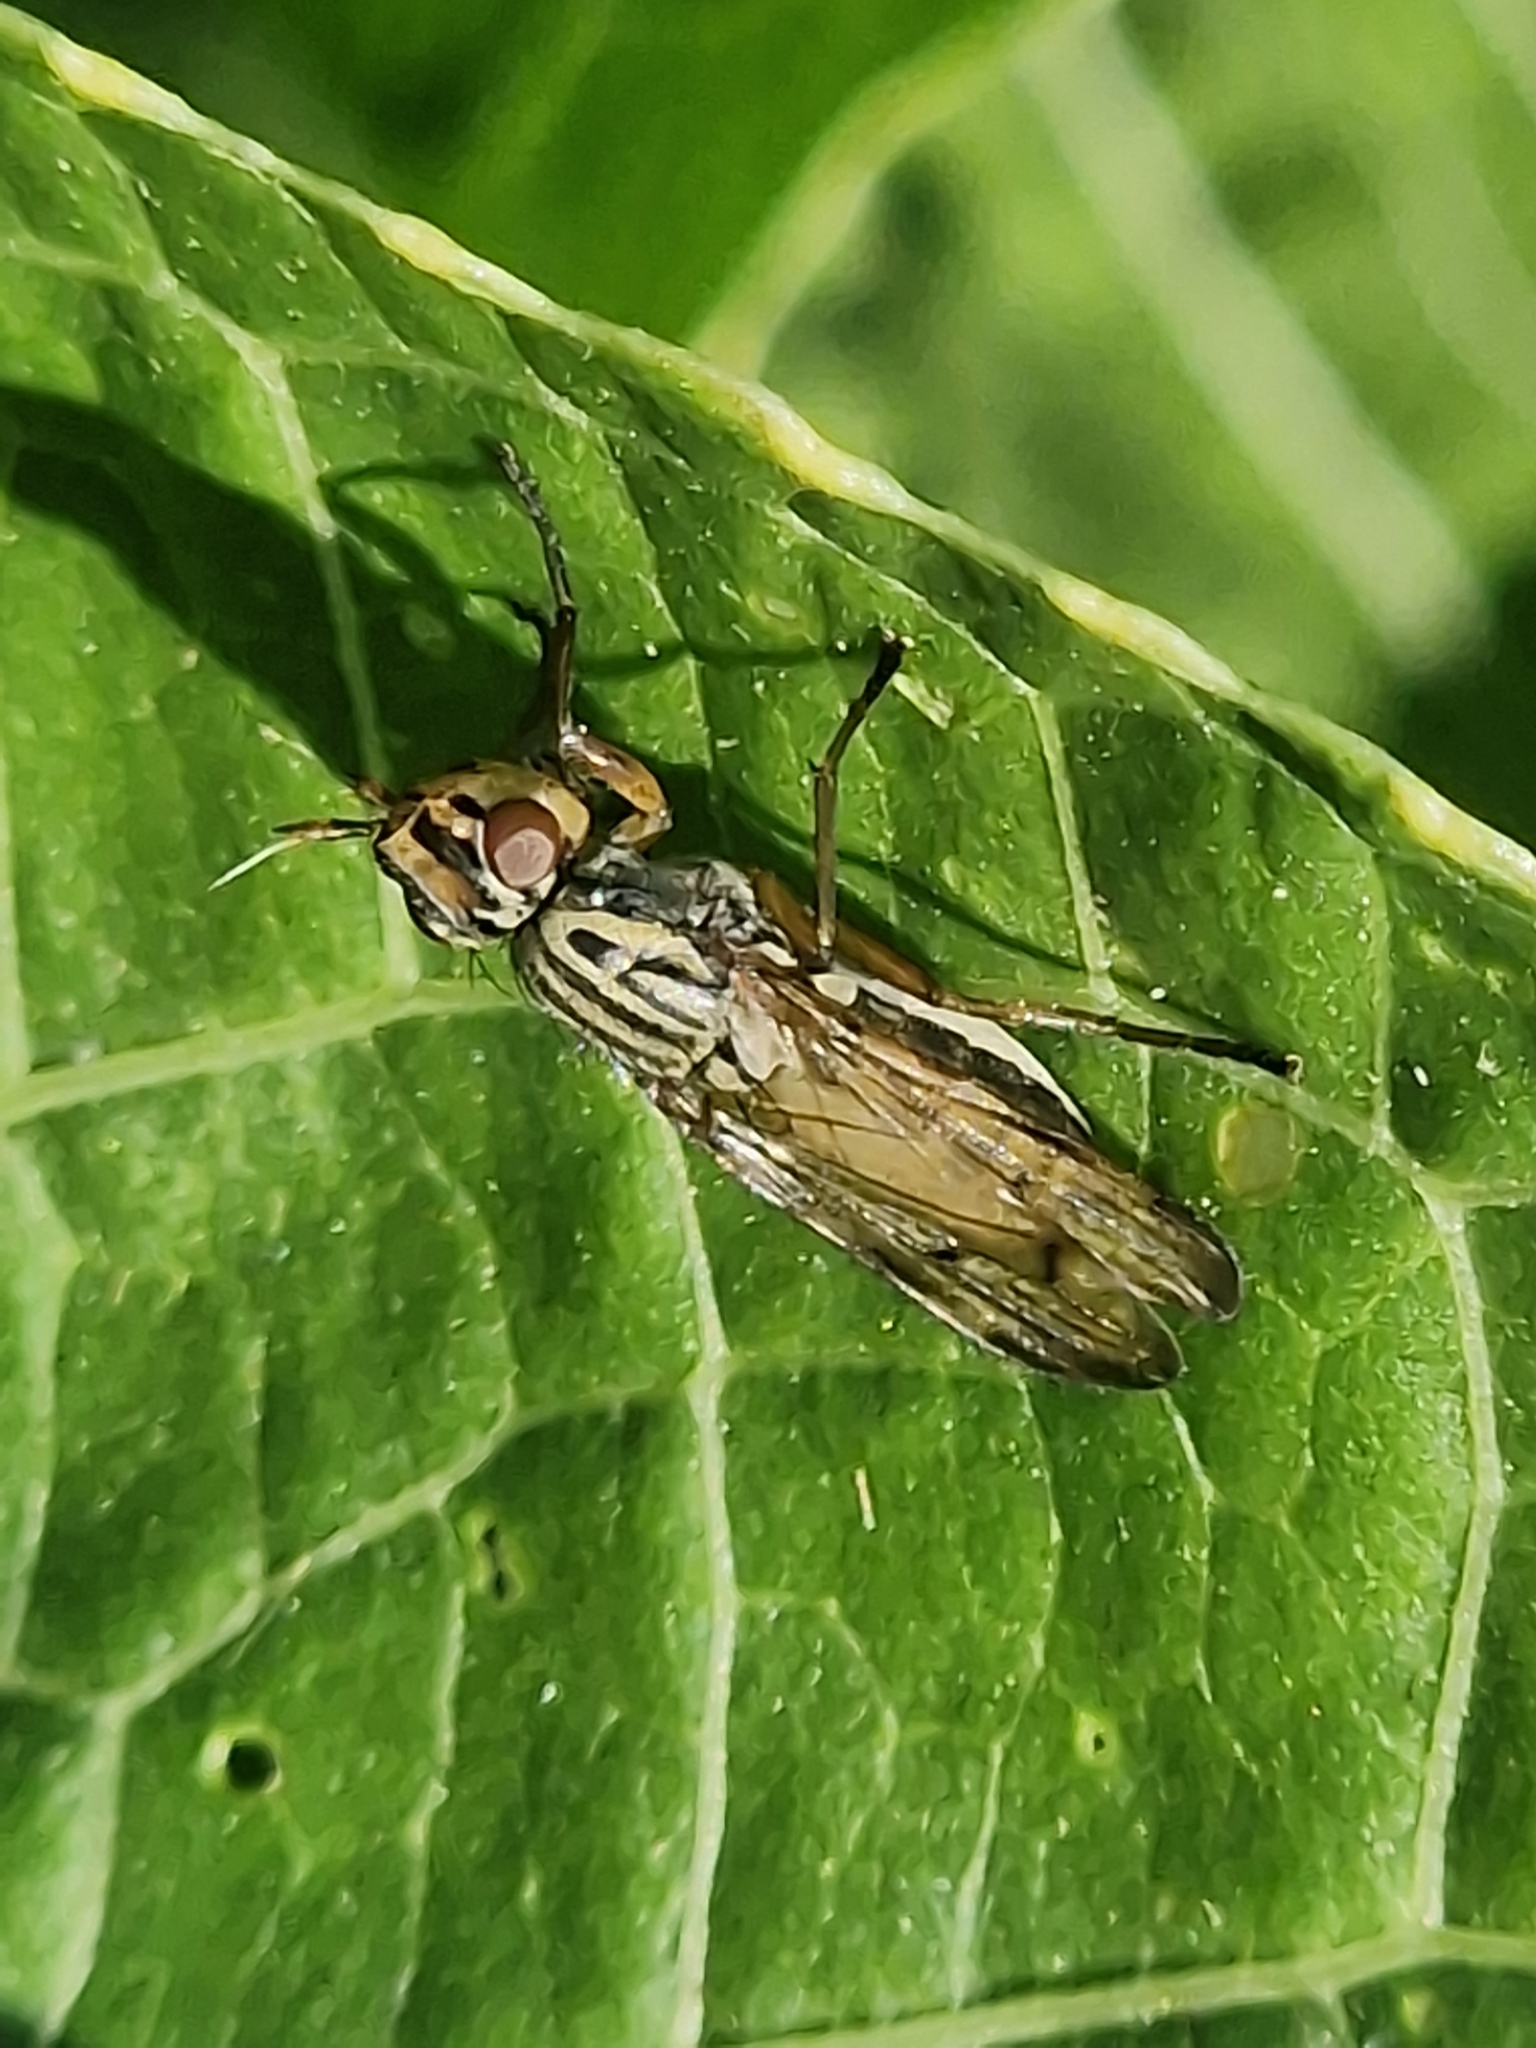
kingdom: Animalia
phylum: Arthropoda
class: Insecta
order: Diptera
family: Ulidiidae
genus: Dorycera
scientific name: Dorycera aquatica
